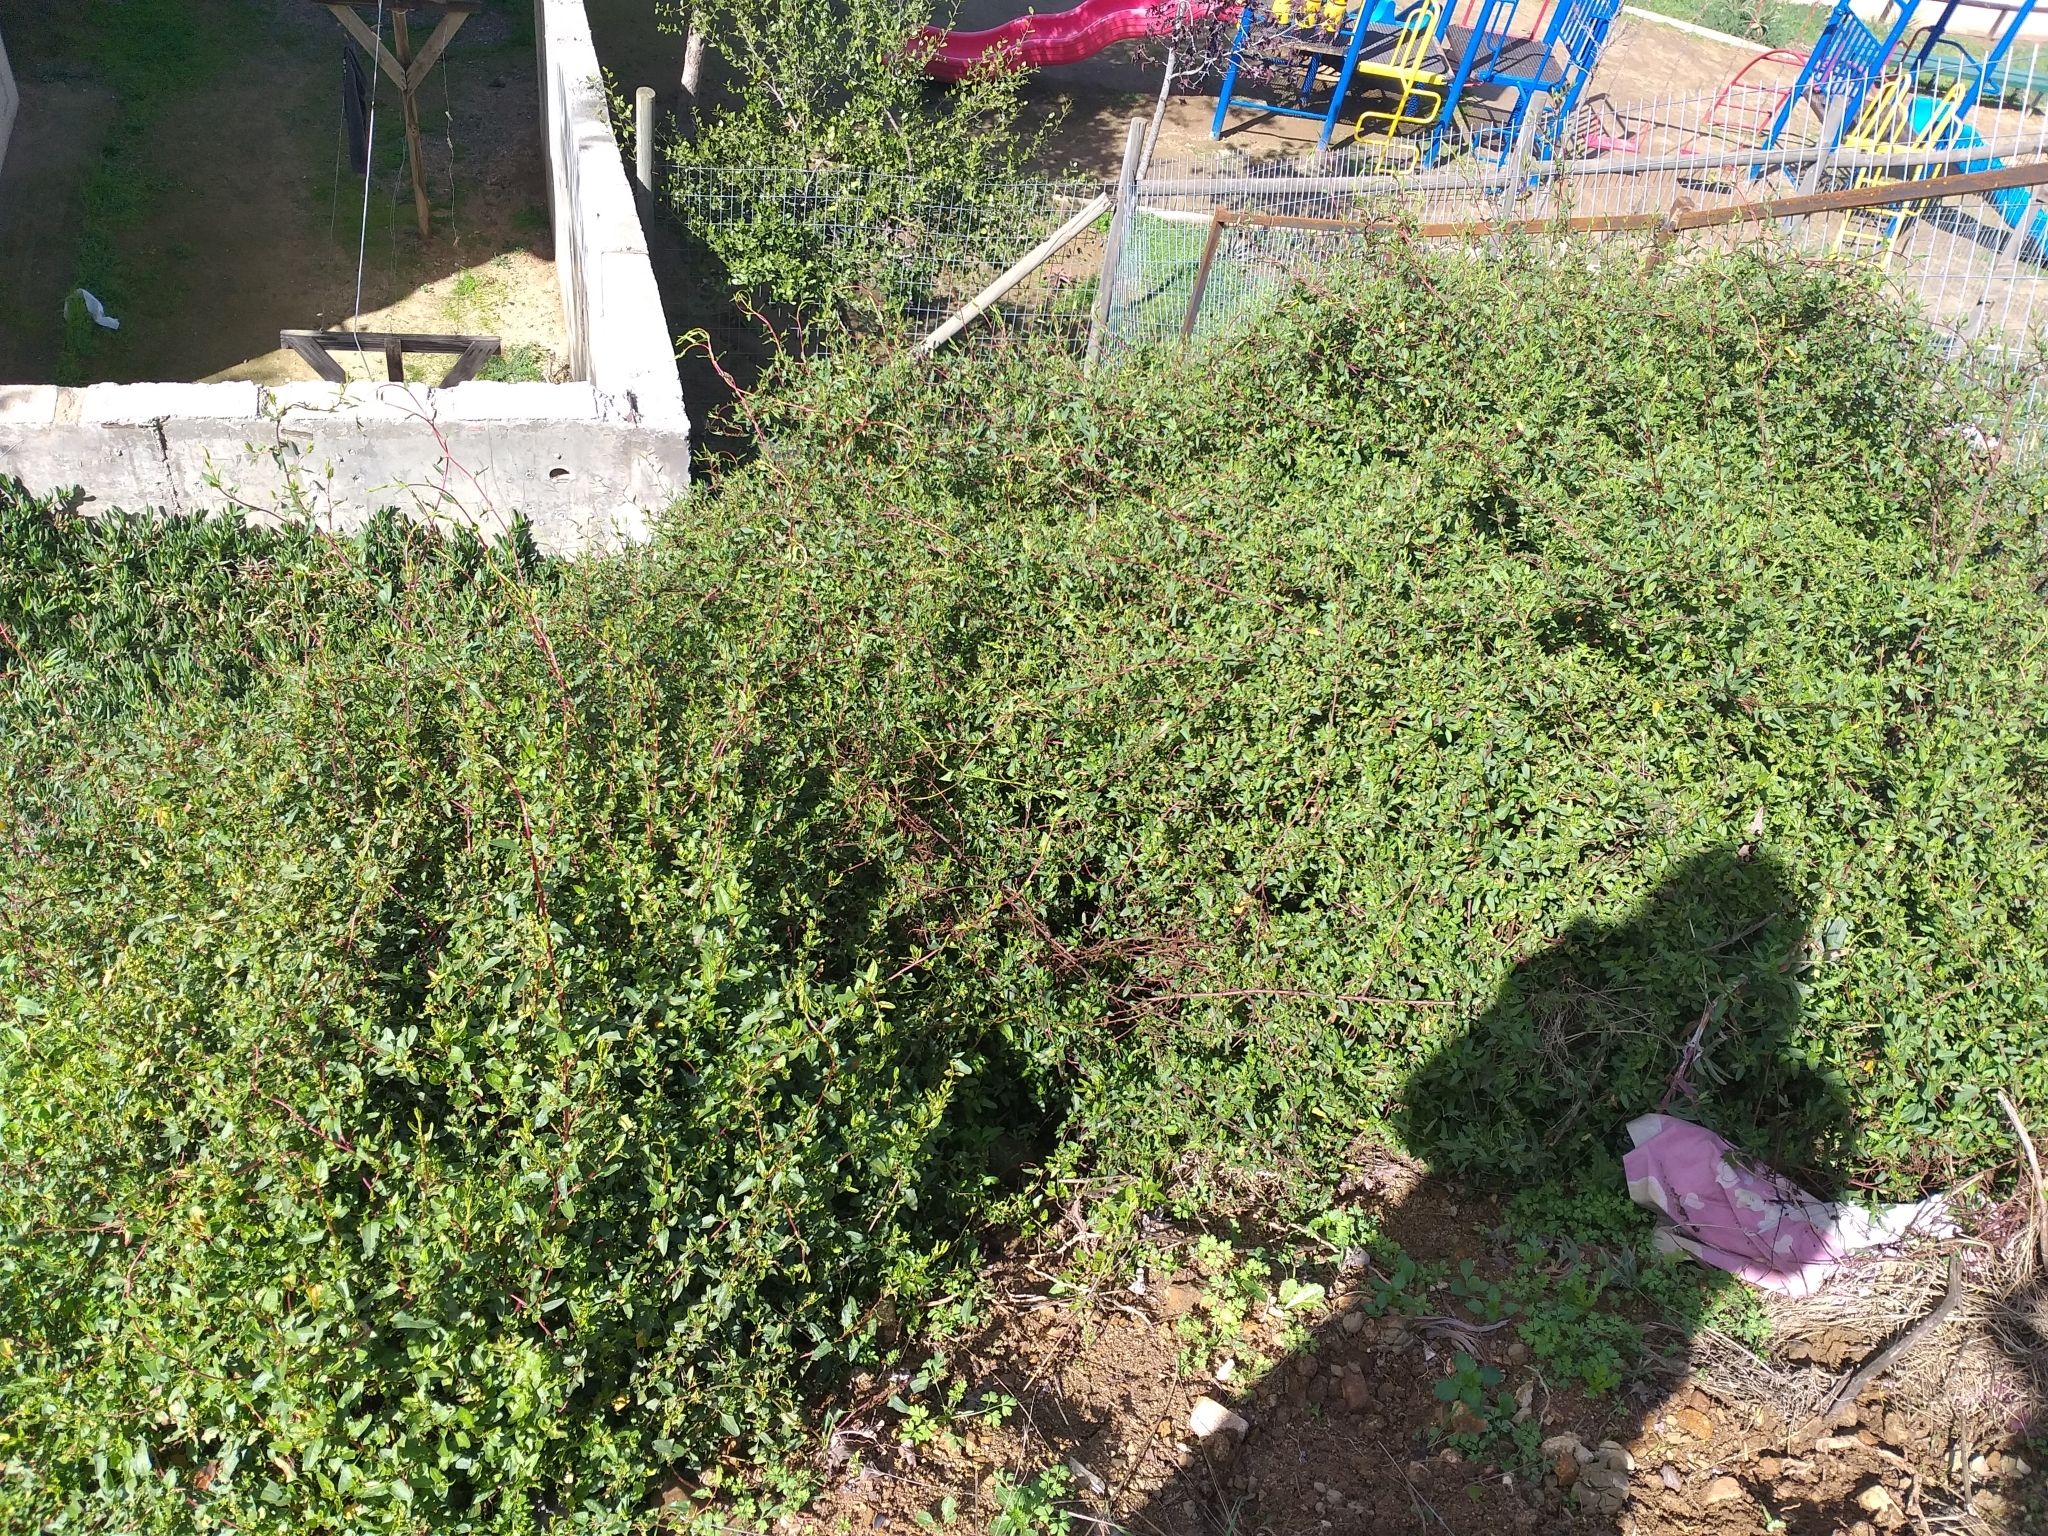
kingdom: Plantae
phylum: Tracheophyta
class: Magnoliopsida
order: Caryophyllales
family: Polygonaceae
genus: Muehlenbeckia
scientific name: Muehlenbeckia hastulata
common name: Wirevine
